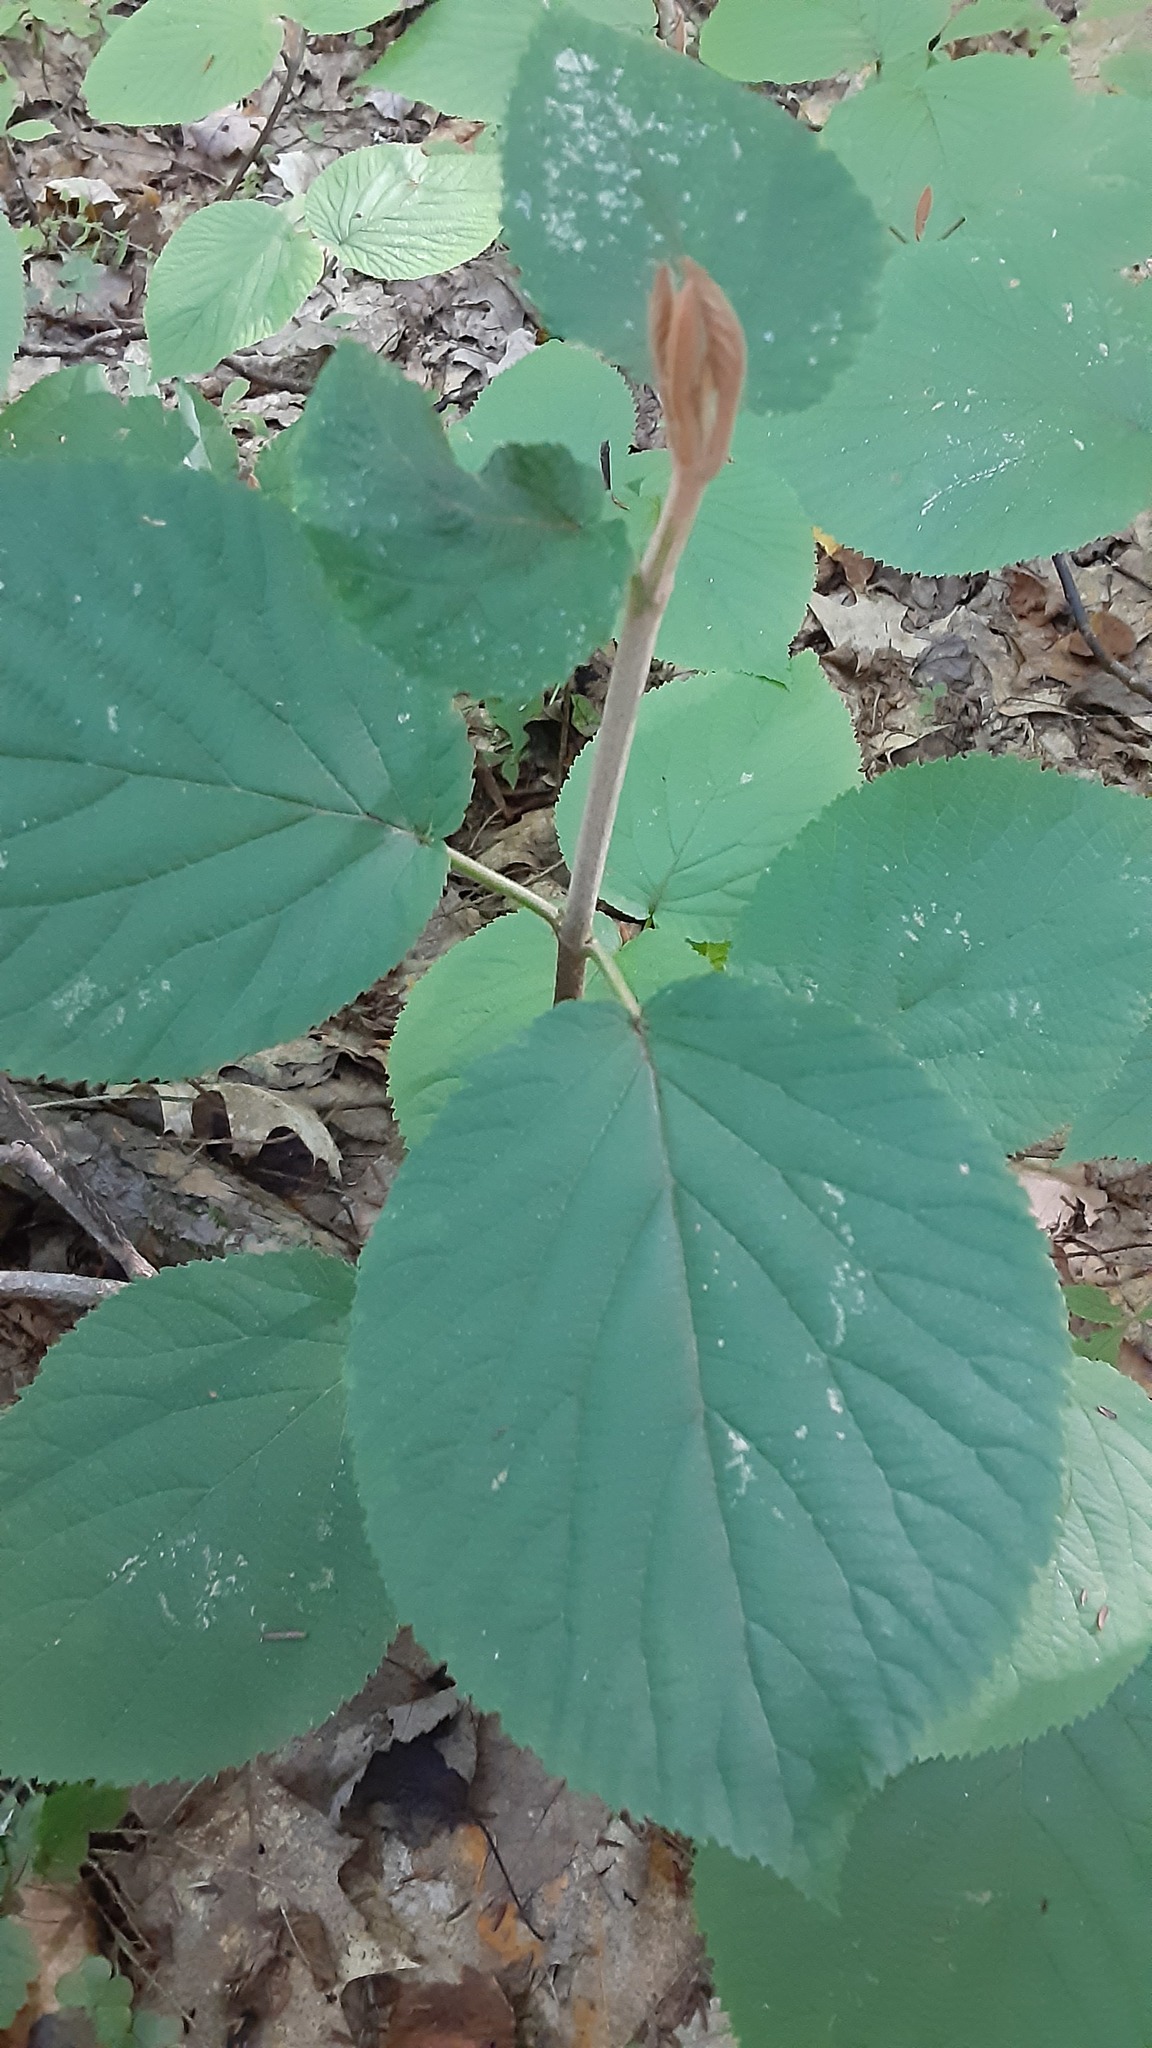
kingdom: Plantae
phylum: Tracheophyta
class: Magnoliopsida
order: Dipsacales
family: Viburnaceae
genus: Viburnum
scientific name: Viburnum lantanoides
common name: Hobblebush
